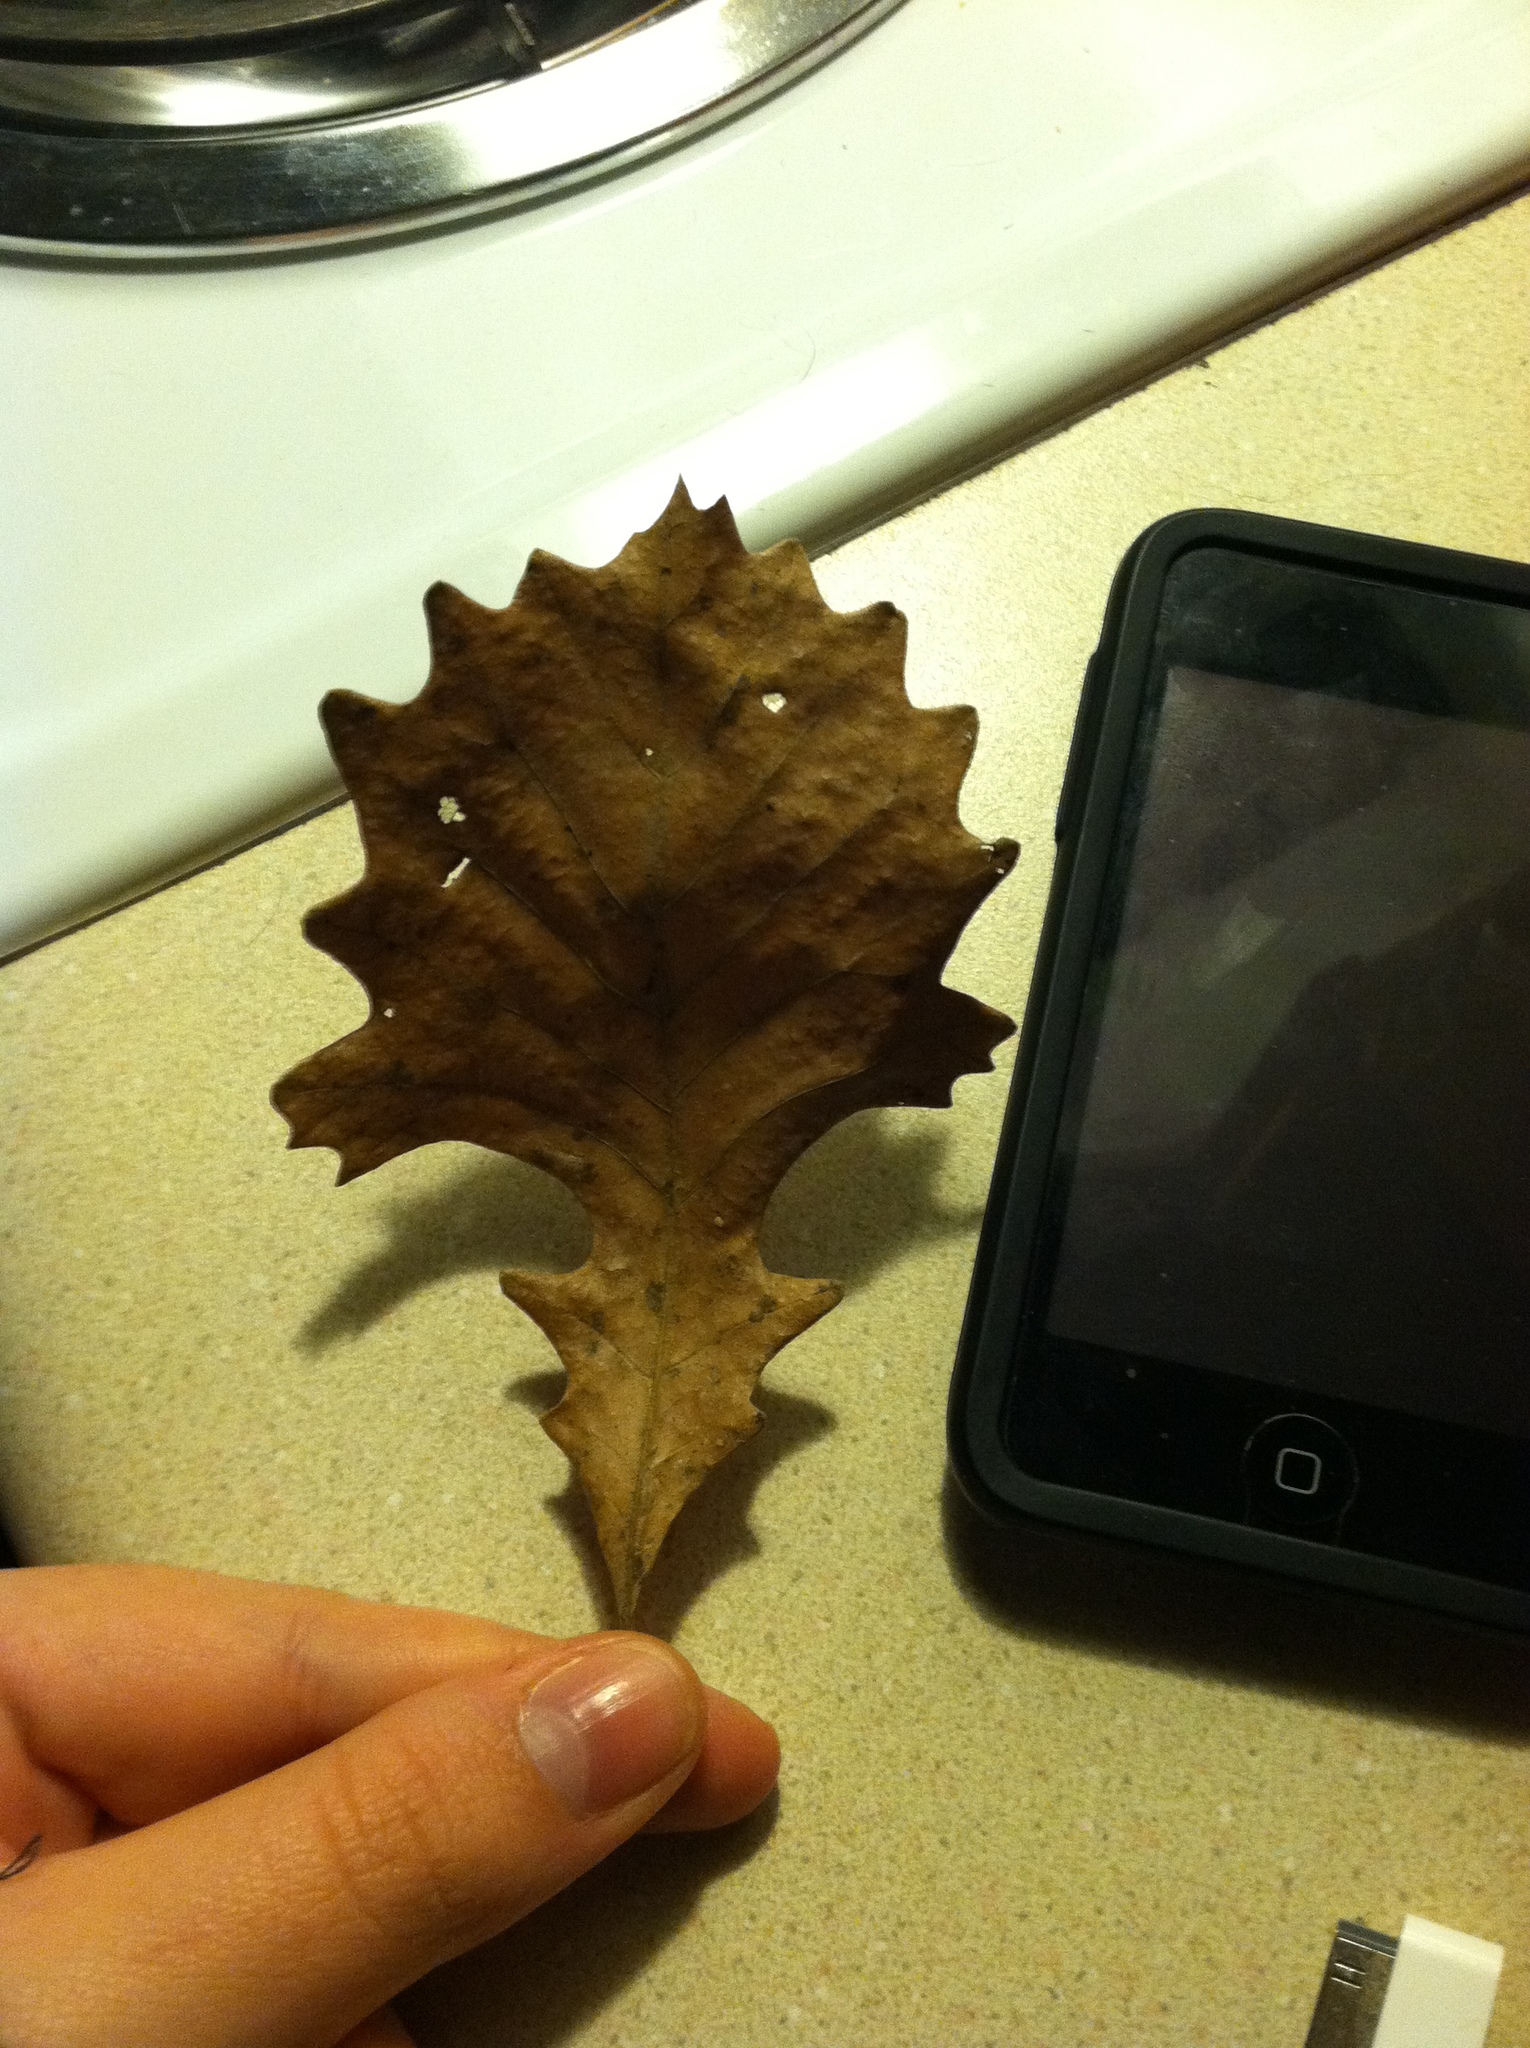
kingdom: Plantae
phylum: Tracheophyta
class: Magnoliopsida
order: Fagales
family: Fagaceae
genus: Quercus
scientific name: Quercus macrocarpa
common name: Bur oak
